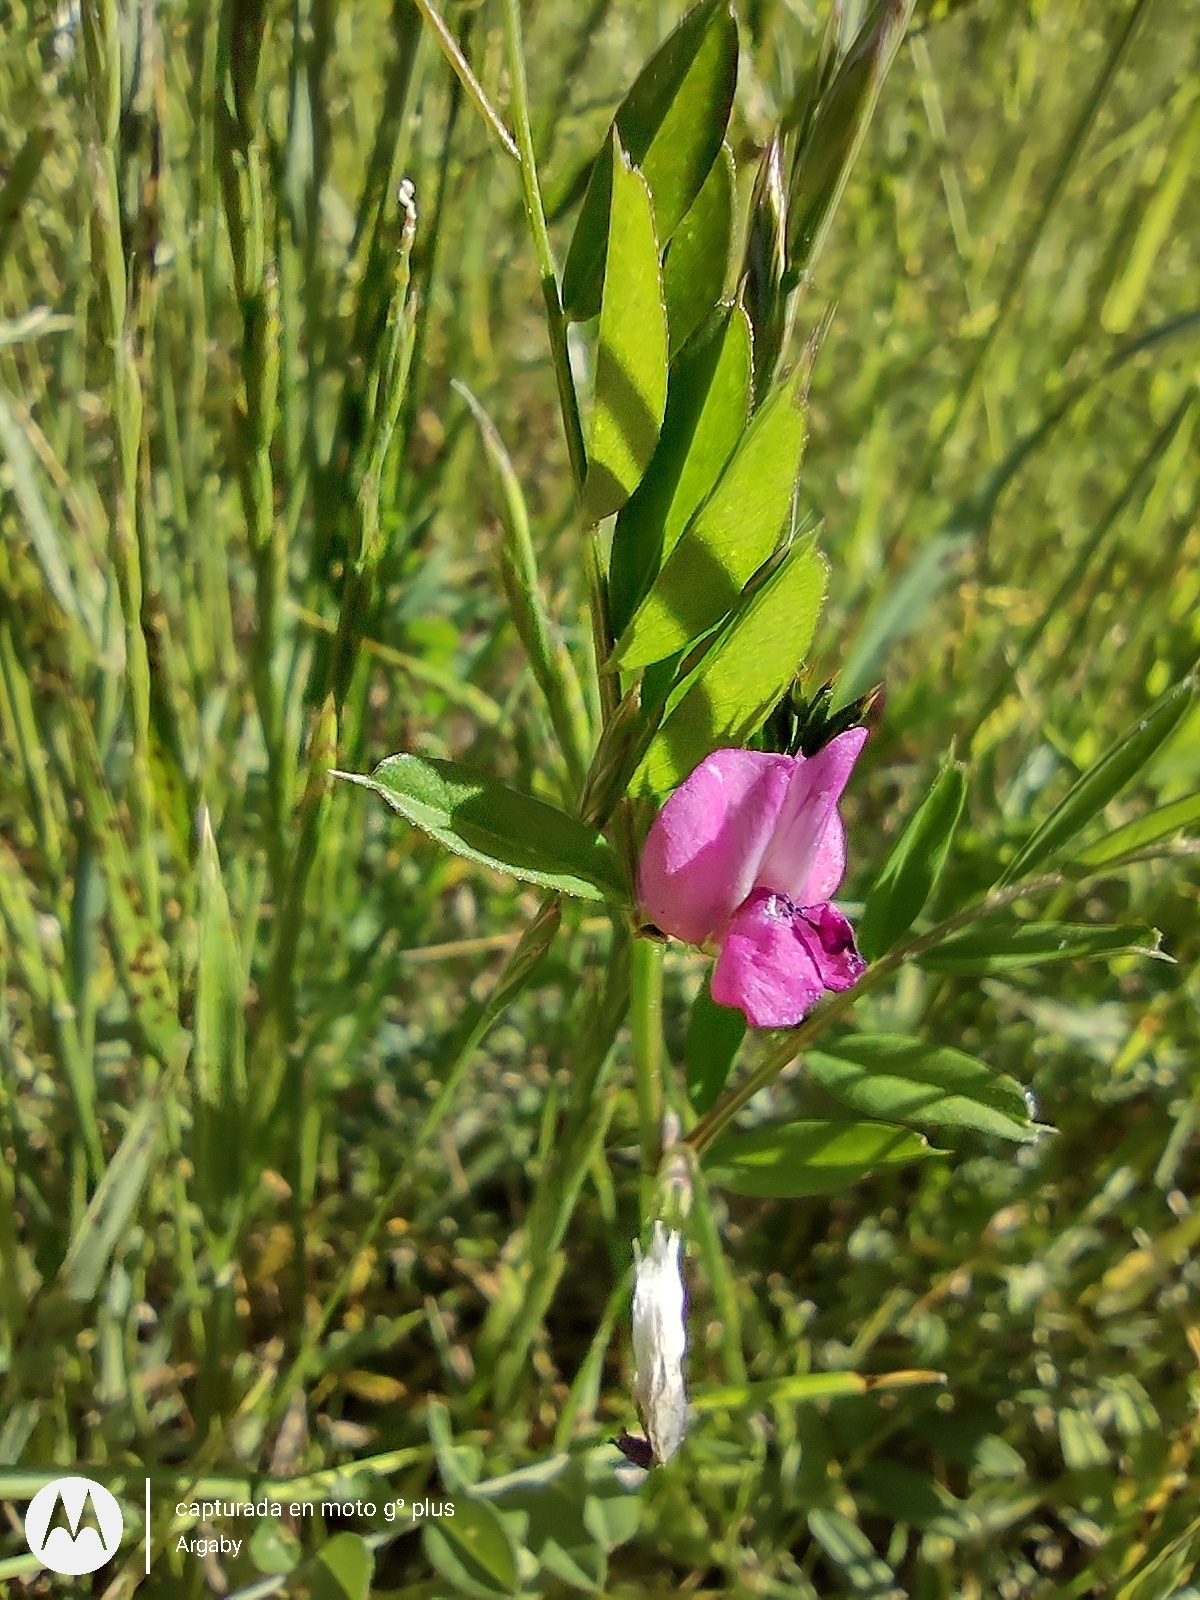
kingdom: Plantae
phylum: Tracheophyta
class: Magnoliopsida
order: Fabales
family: Fabaceae
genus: Vicia
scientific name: Vicia sativa
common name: Garden vetch
